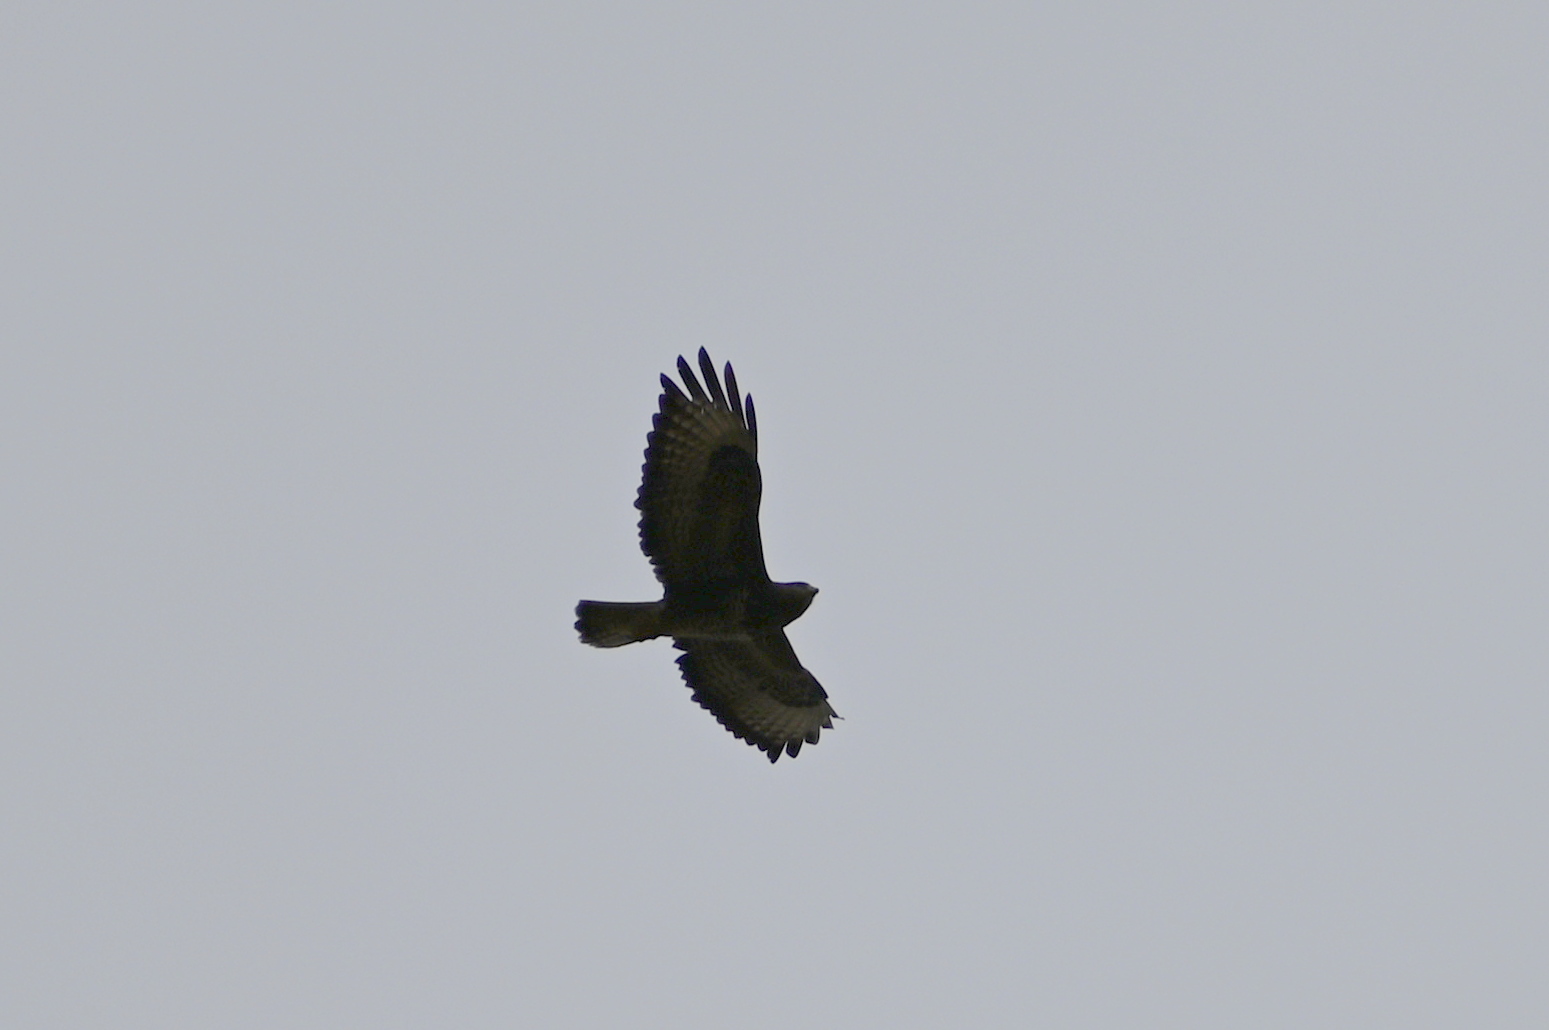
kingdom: Animalia
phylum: Chordata
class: Aves
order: Accipitriformes
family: Accipitridae
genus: Buteo
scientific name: Buteo buteo
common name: Common buzzard
